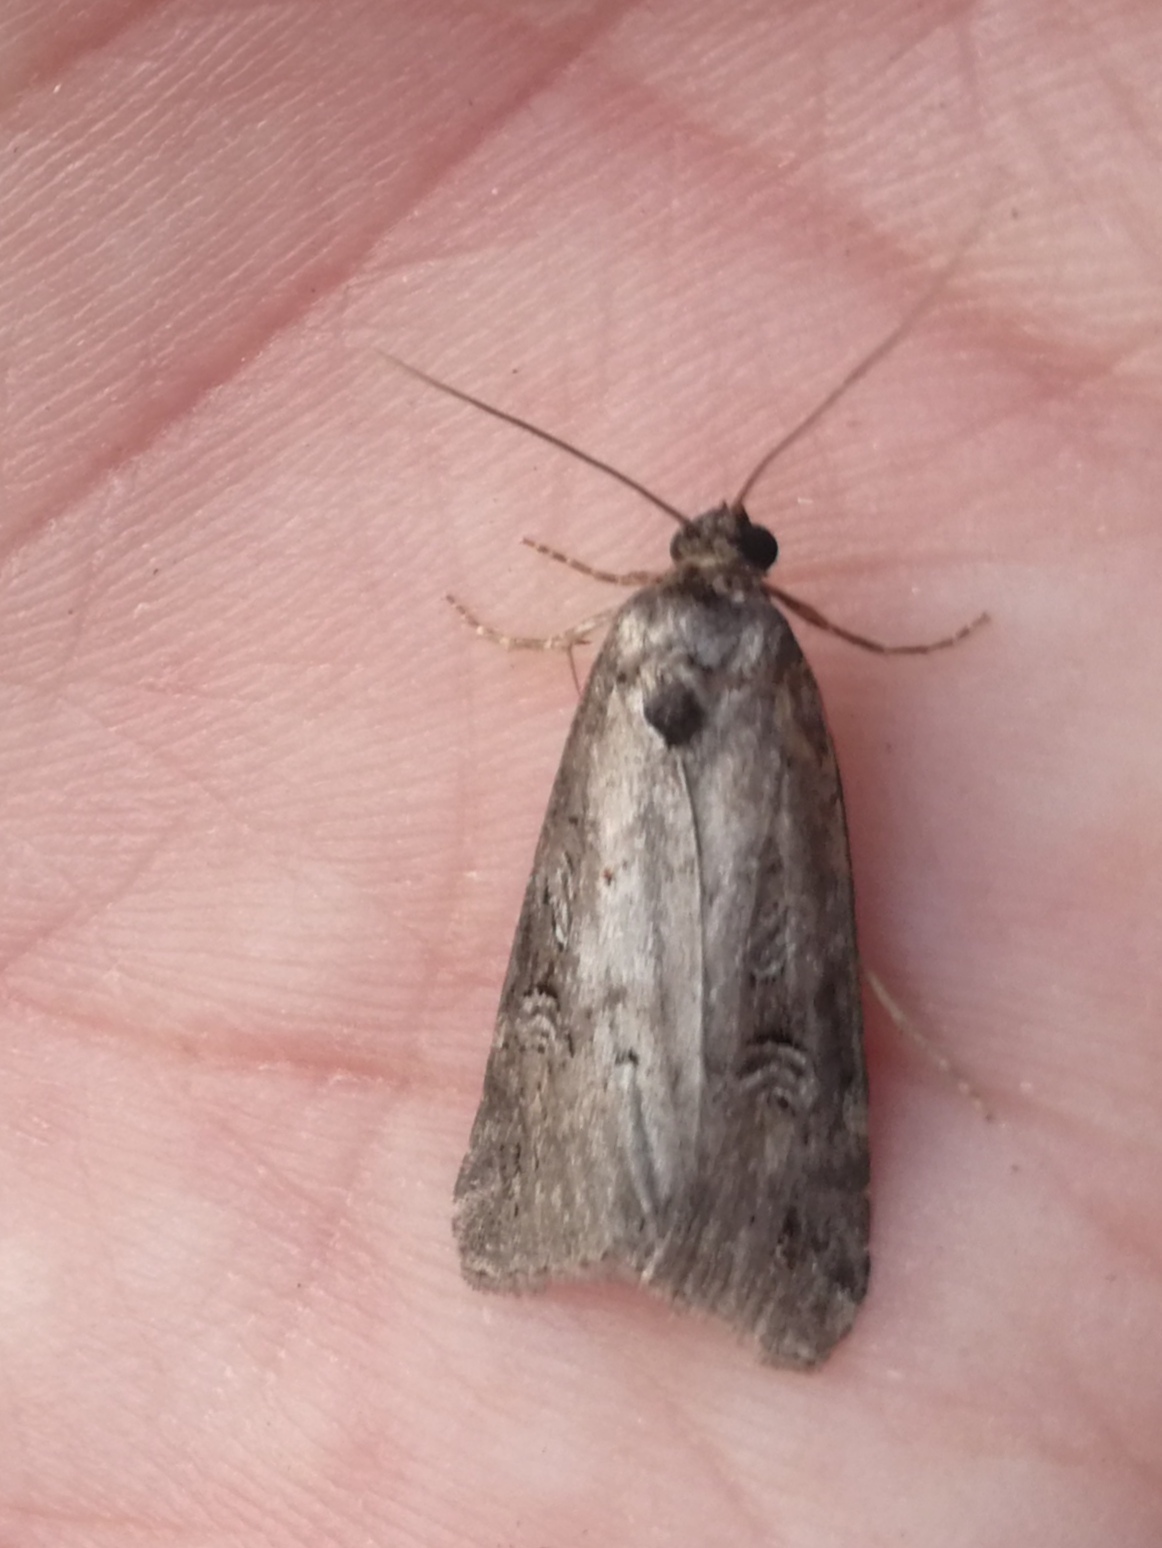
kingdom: Animalia
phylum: Arthropoda
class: Insecta
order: Lepidoptera
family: Noctuidae
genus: Stilbia
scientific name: Stilbia anomala
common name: Anomalous
